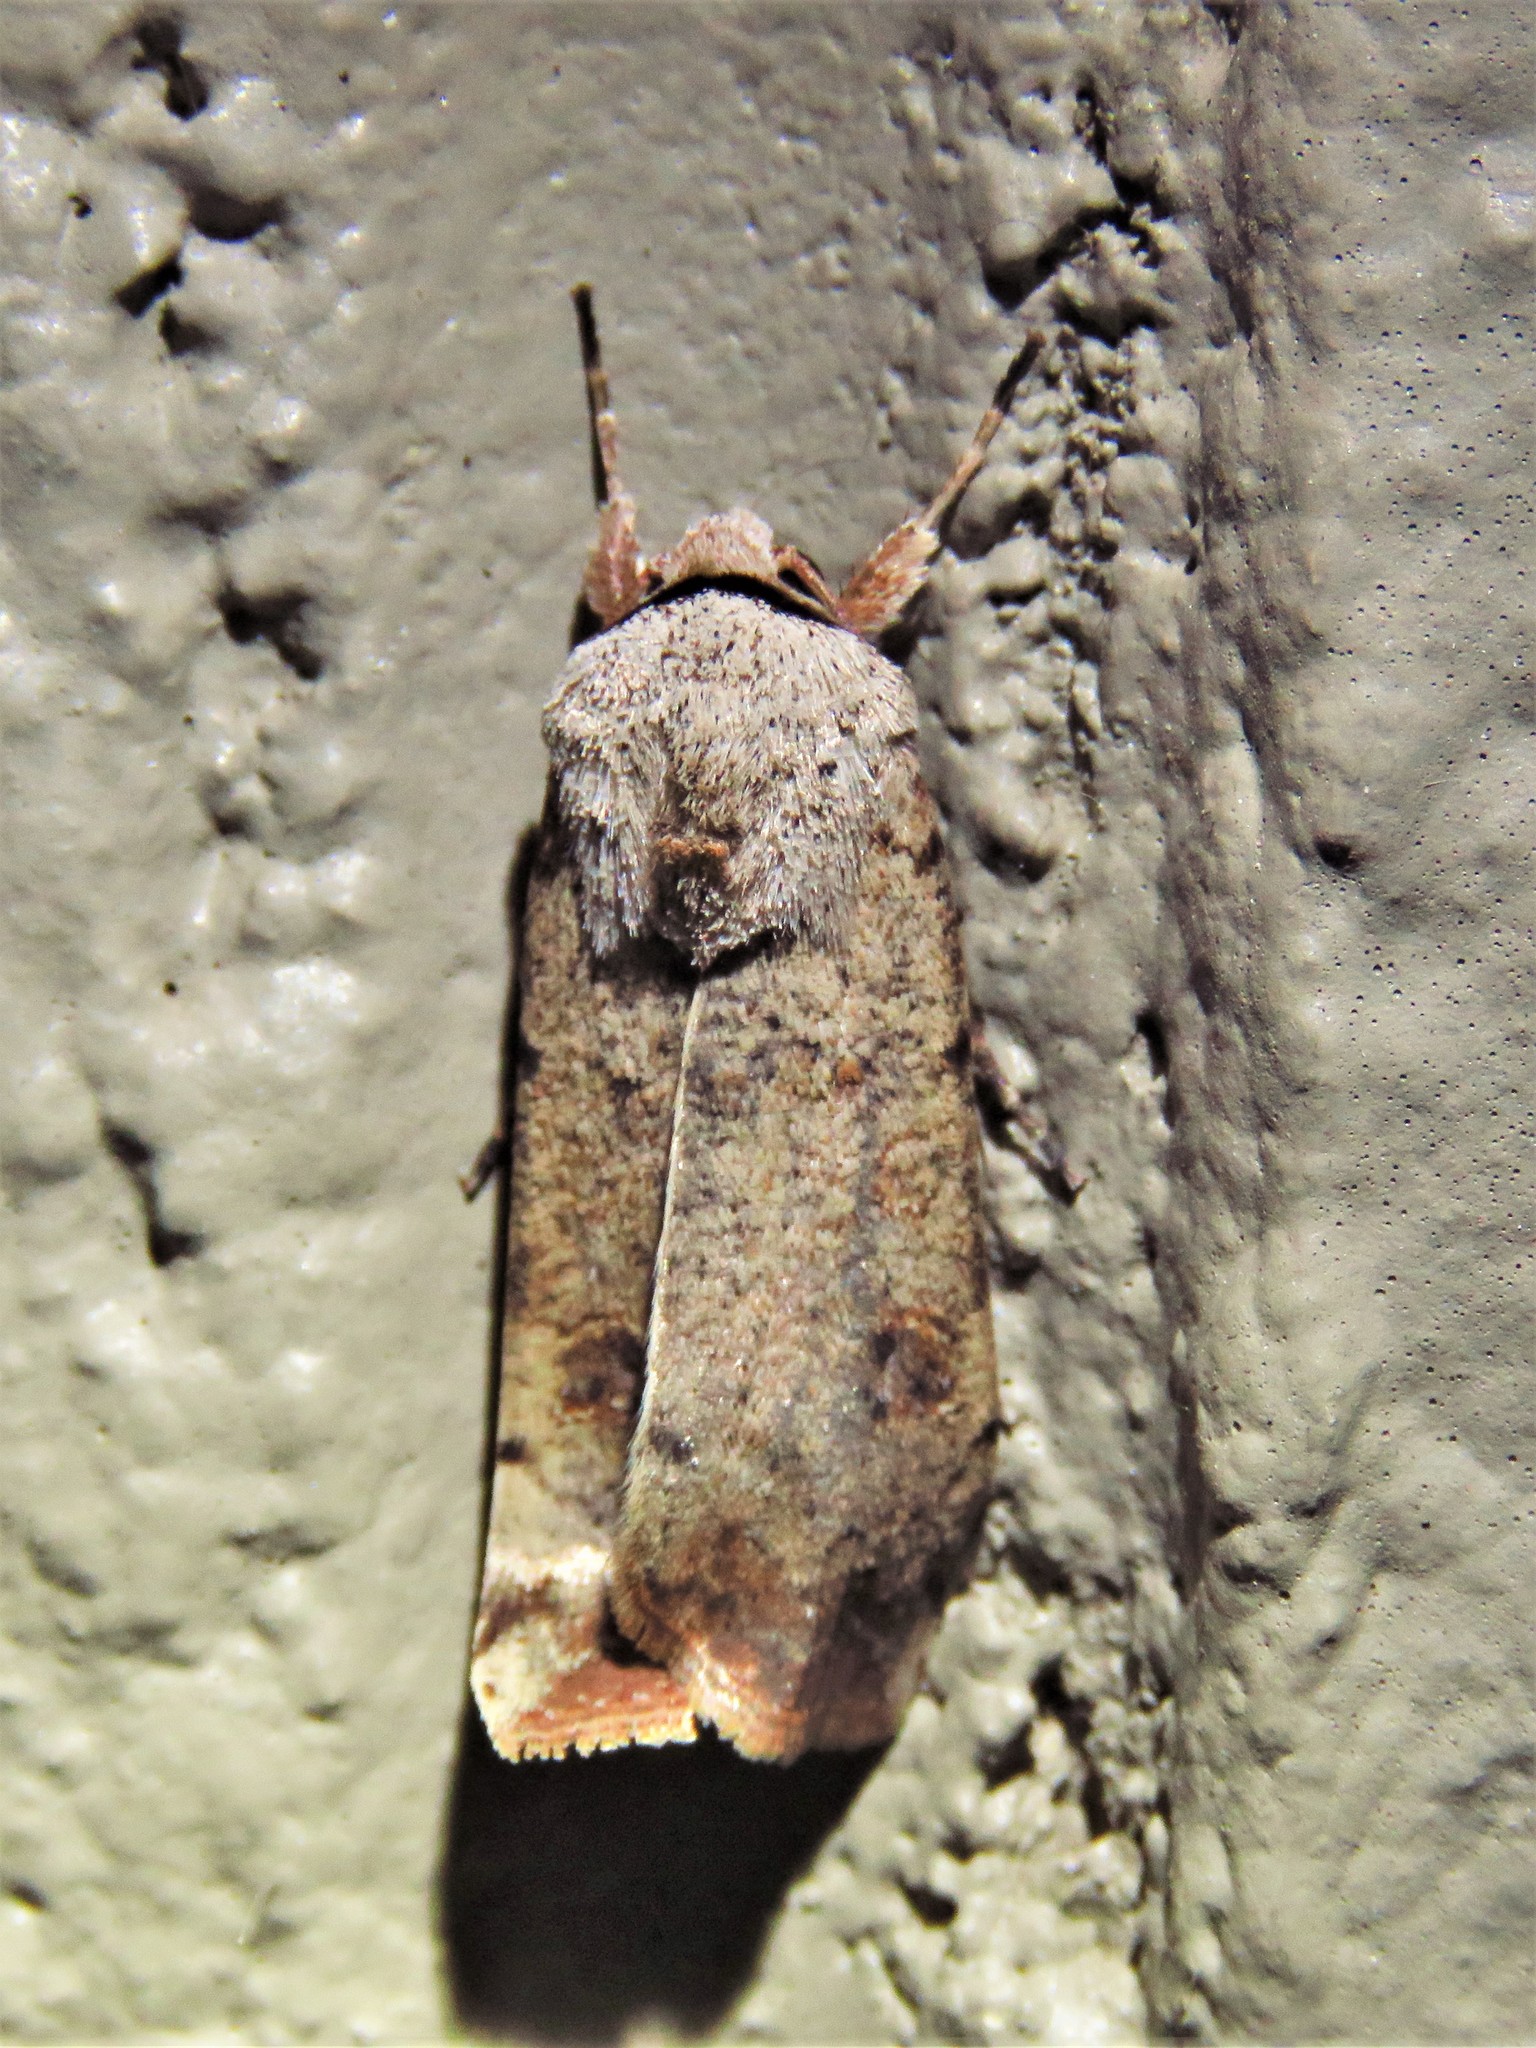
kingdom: Animalia
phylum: Arthropoda
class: Insecta
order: Lepidoptera
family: Noctuidae
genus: Anicla
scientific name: Anicla infecta
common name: Green cutworm
